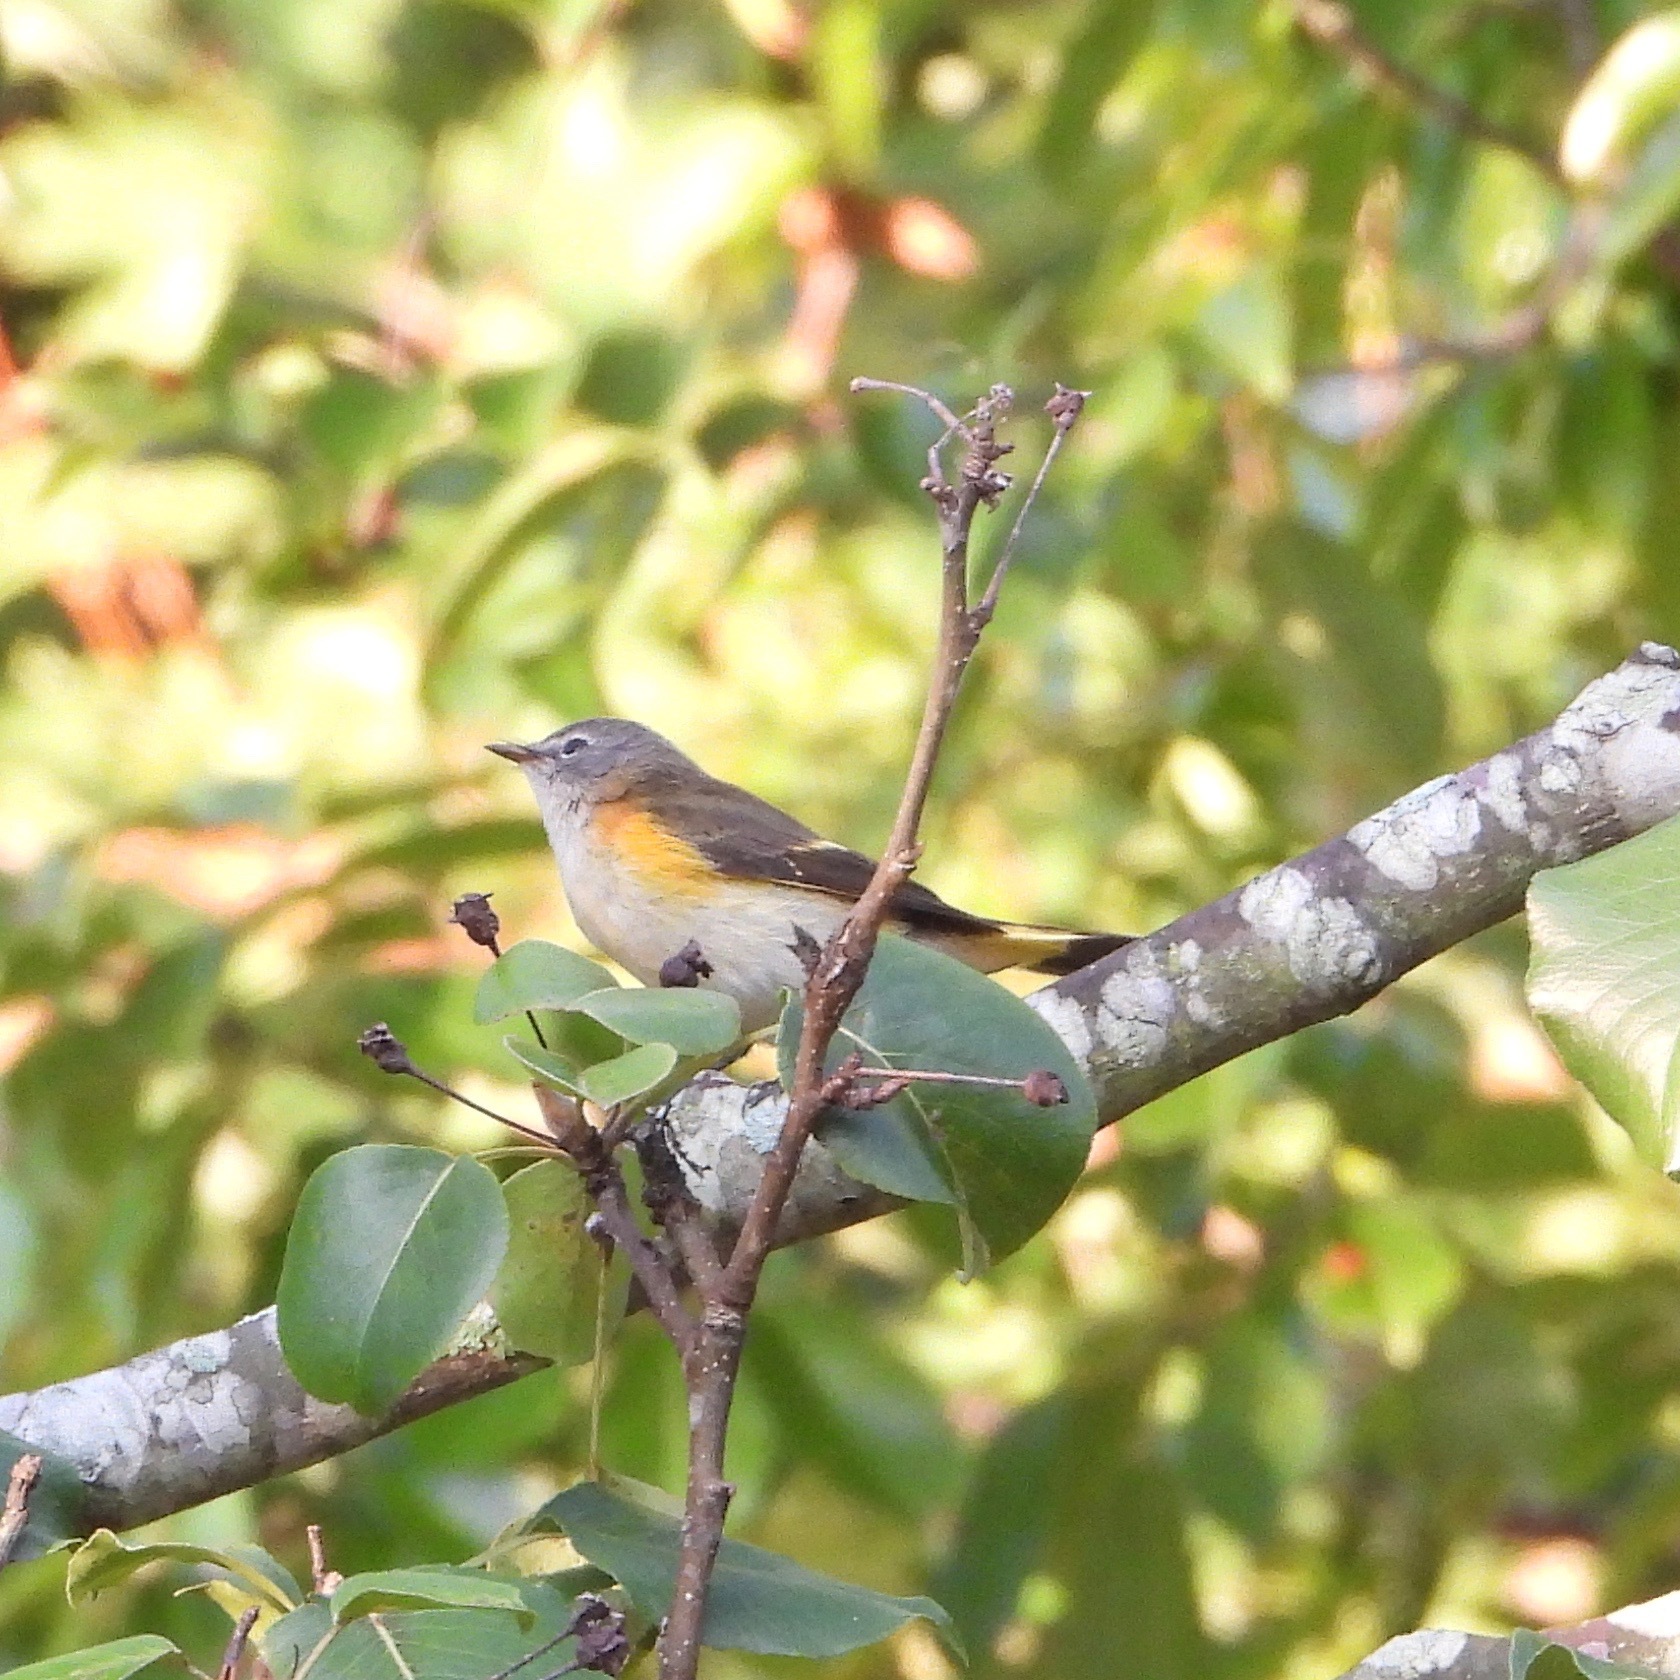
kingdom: Animalia
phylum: Chordata
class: Aves
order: Passeriformes
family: Parulidae
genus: Setophaga
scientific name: Setophaga ruticilla
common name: American redstart
